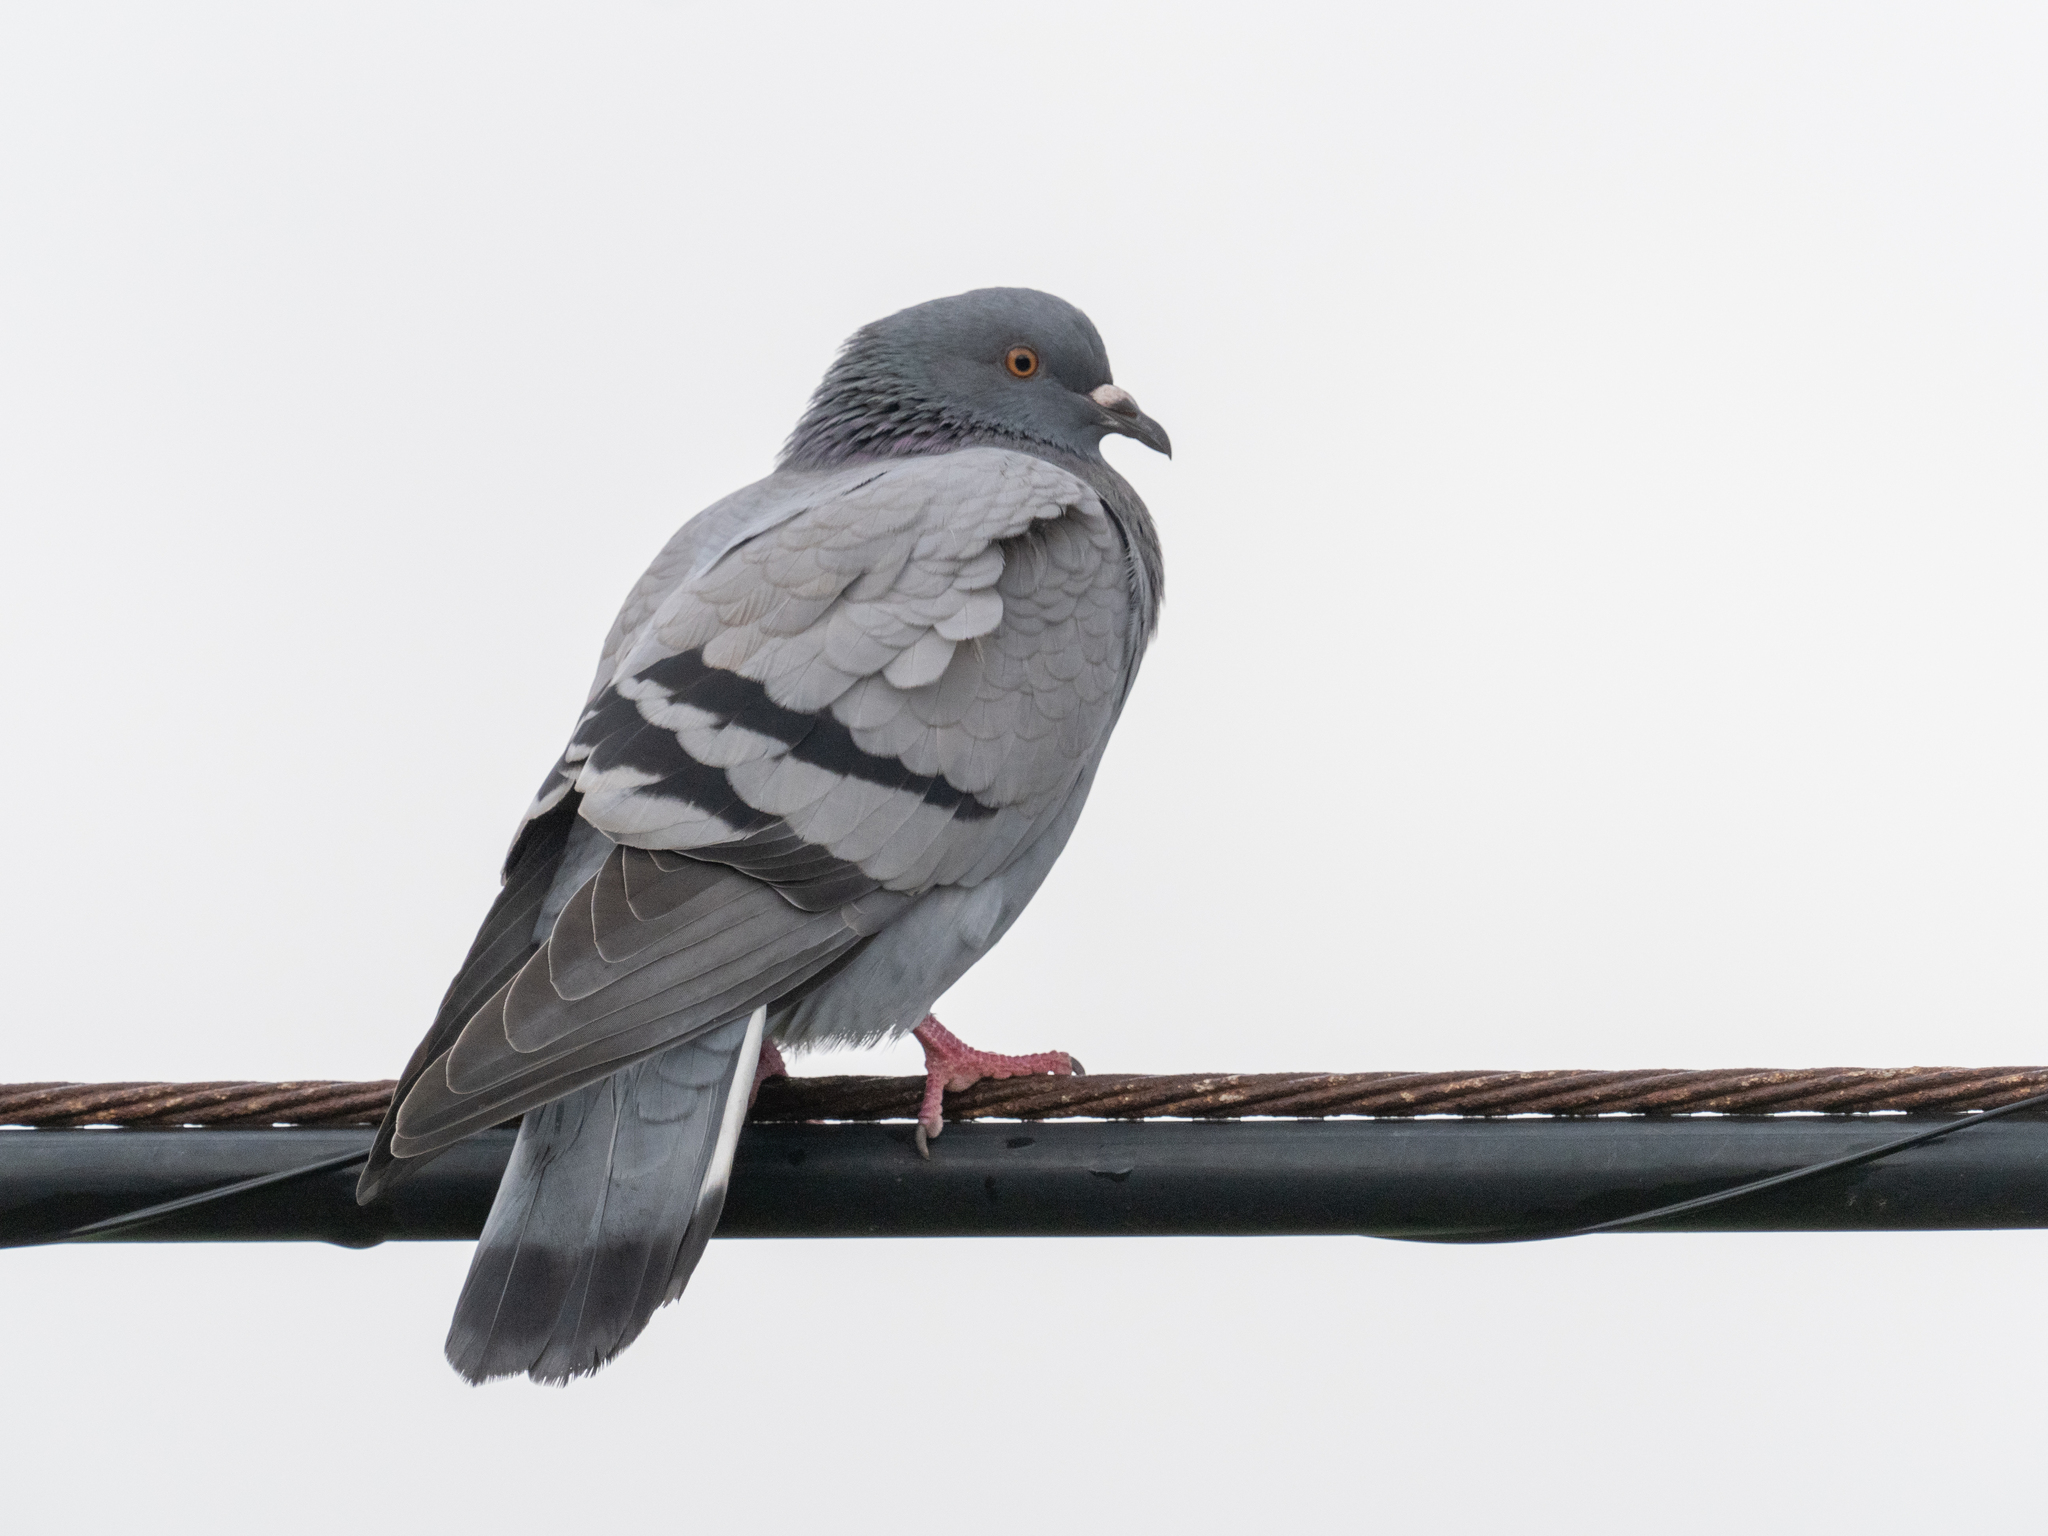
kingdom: Animalia
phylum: Chordata
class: Aves
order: Columbiformes
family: Columbidae
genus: Columba
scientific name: Columba livia
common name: Rock pigeon
